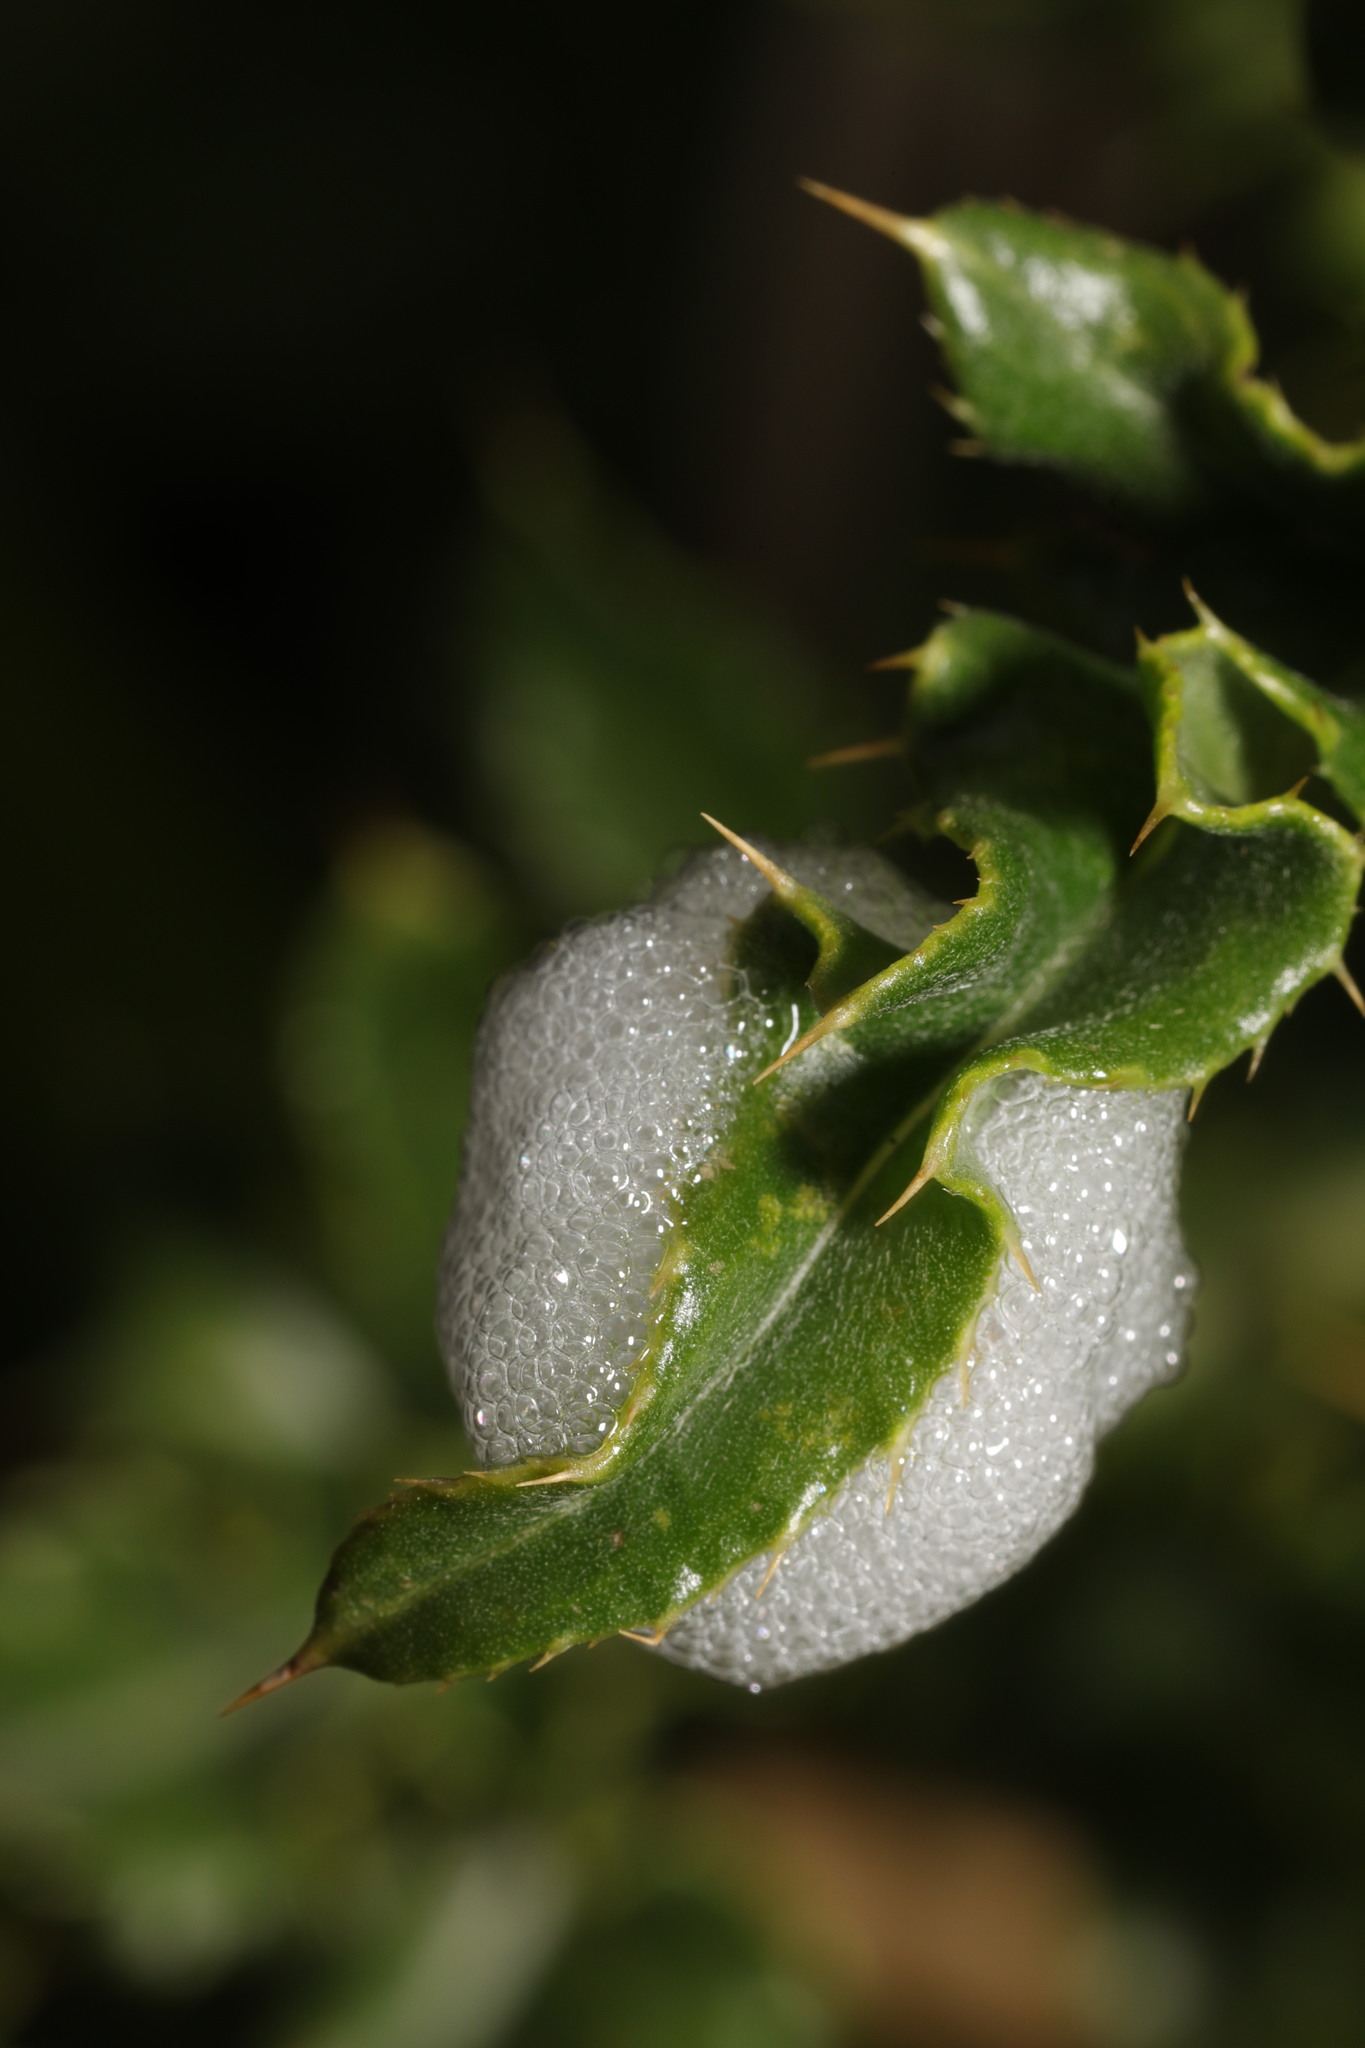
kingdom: Animalia
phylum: Arthropoda
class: Insecta
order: Hemiptera
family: Aphrophoridae
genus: Philaenus
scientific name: Philaenus spumarius
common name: Meadow spittlebug
